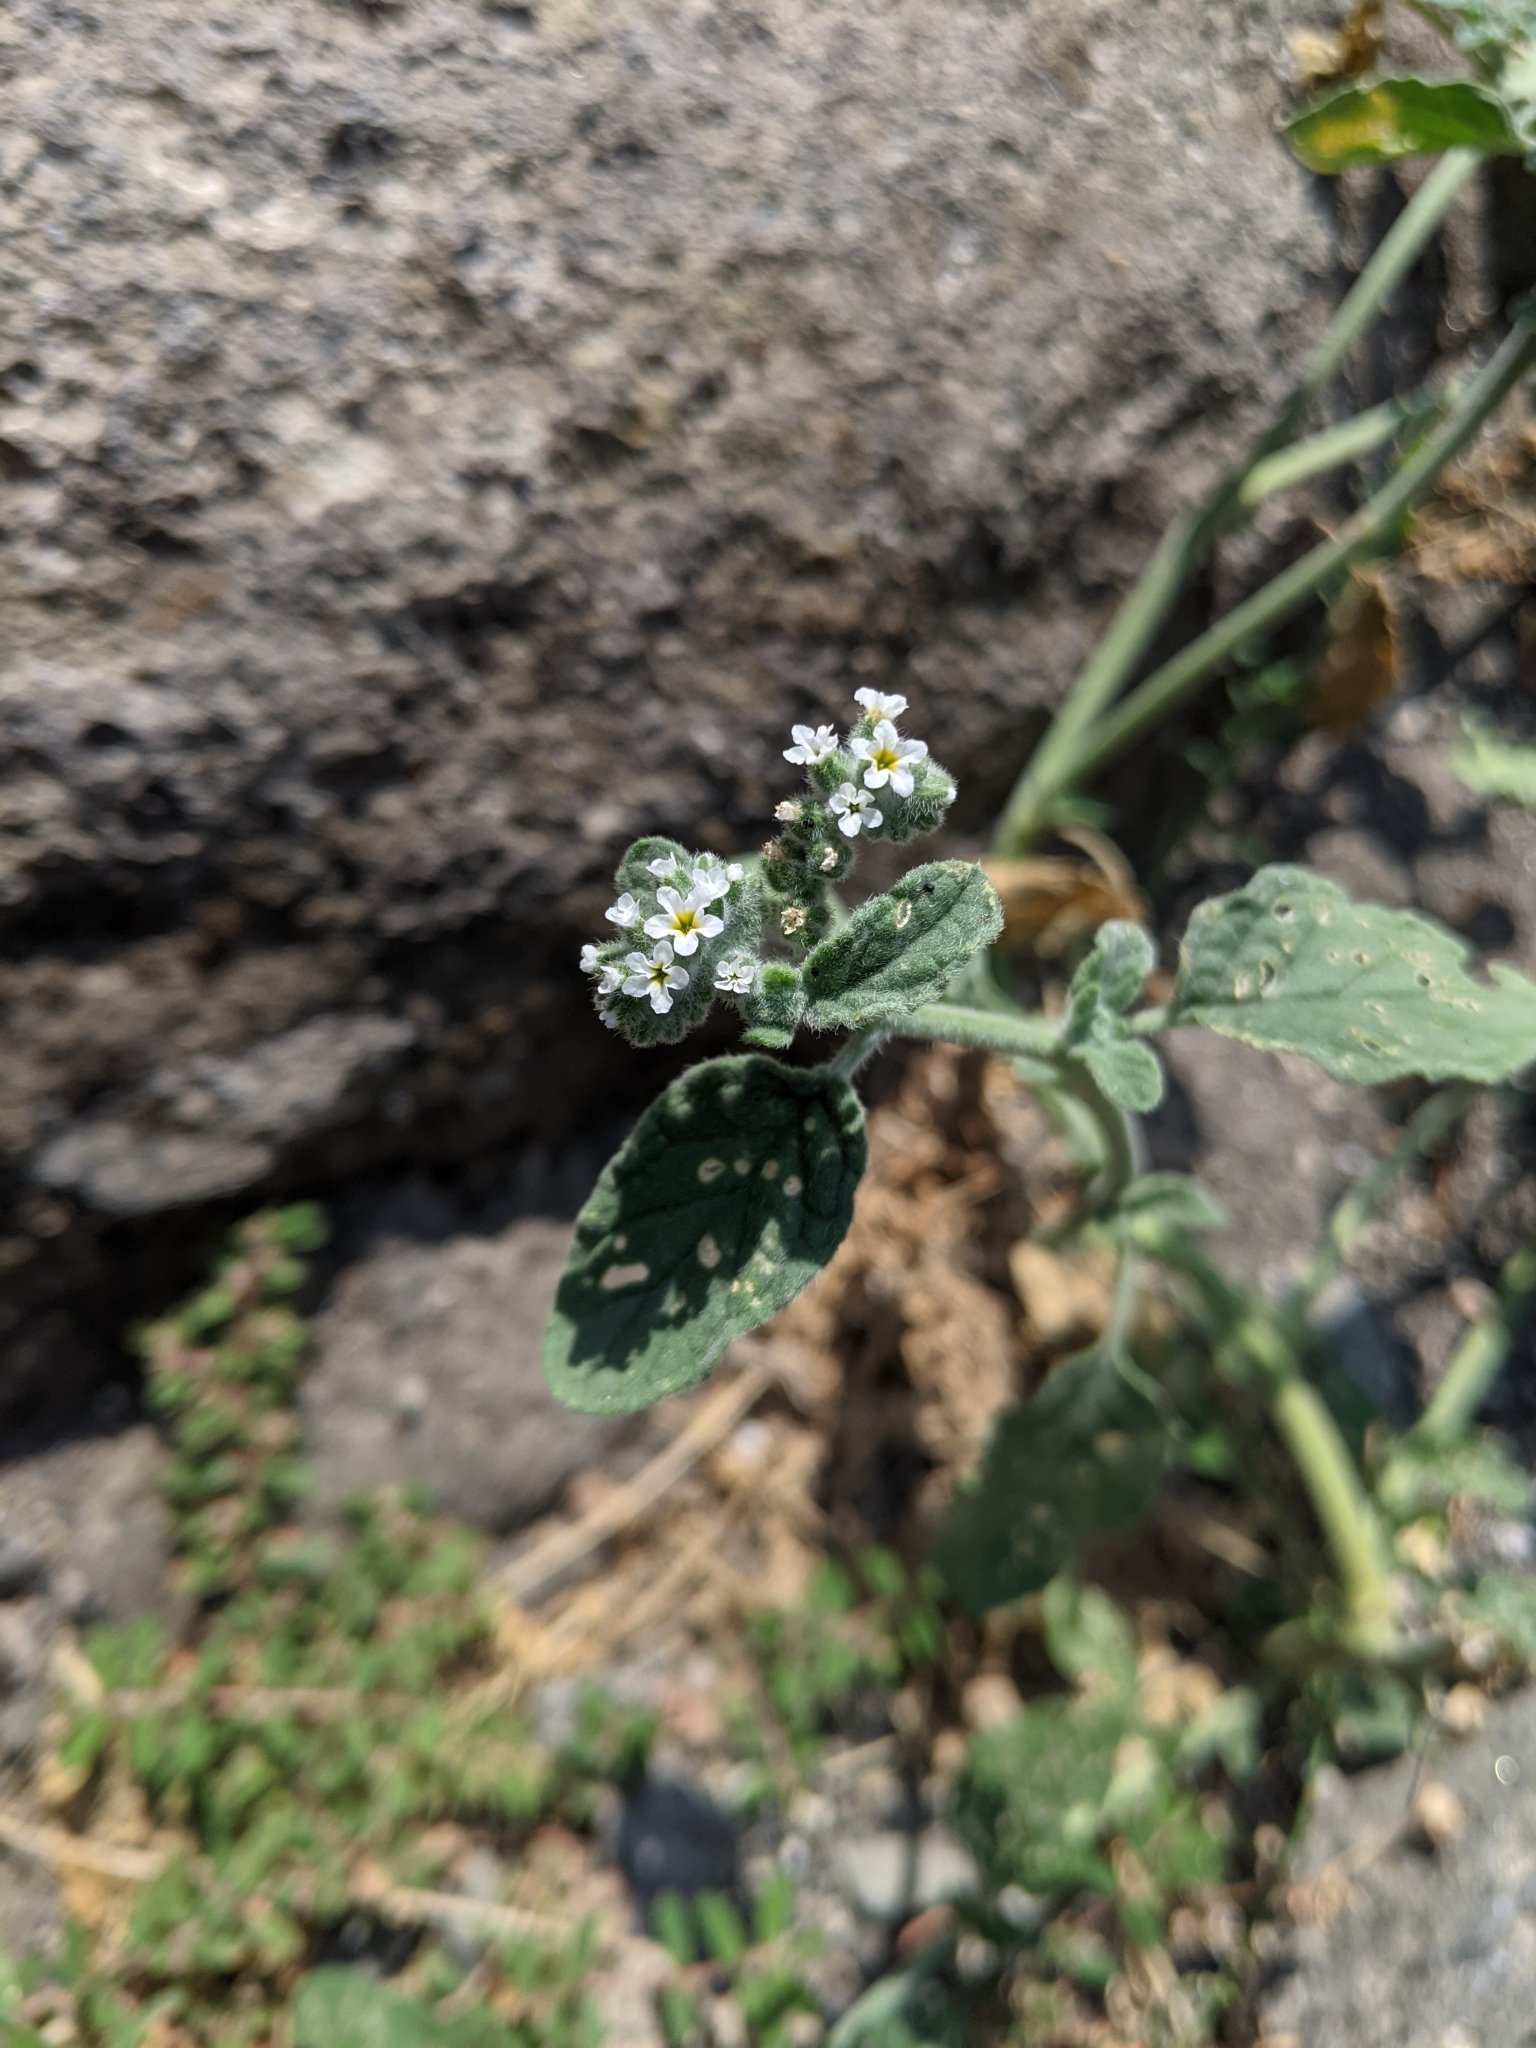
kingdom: Plantae
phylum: Tracheophyta
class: Magnoliopsida
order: Boraginales
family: Heliotropiaceae
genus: Heliotropium
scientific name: Heliotropium europaeum
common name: European heliotrope
